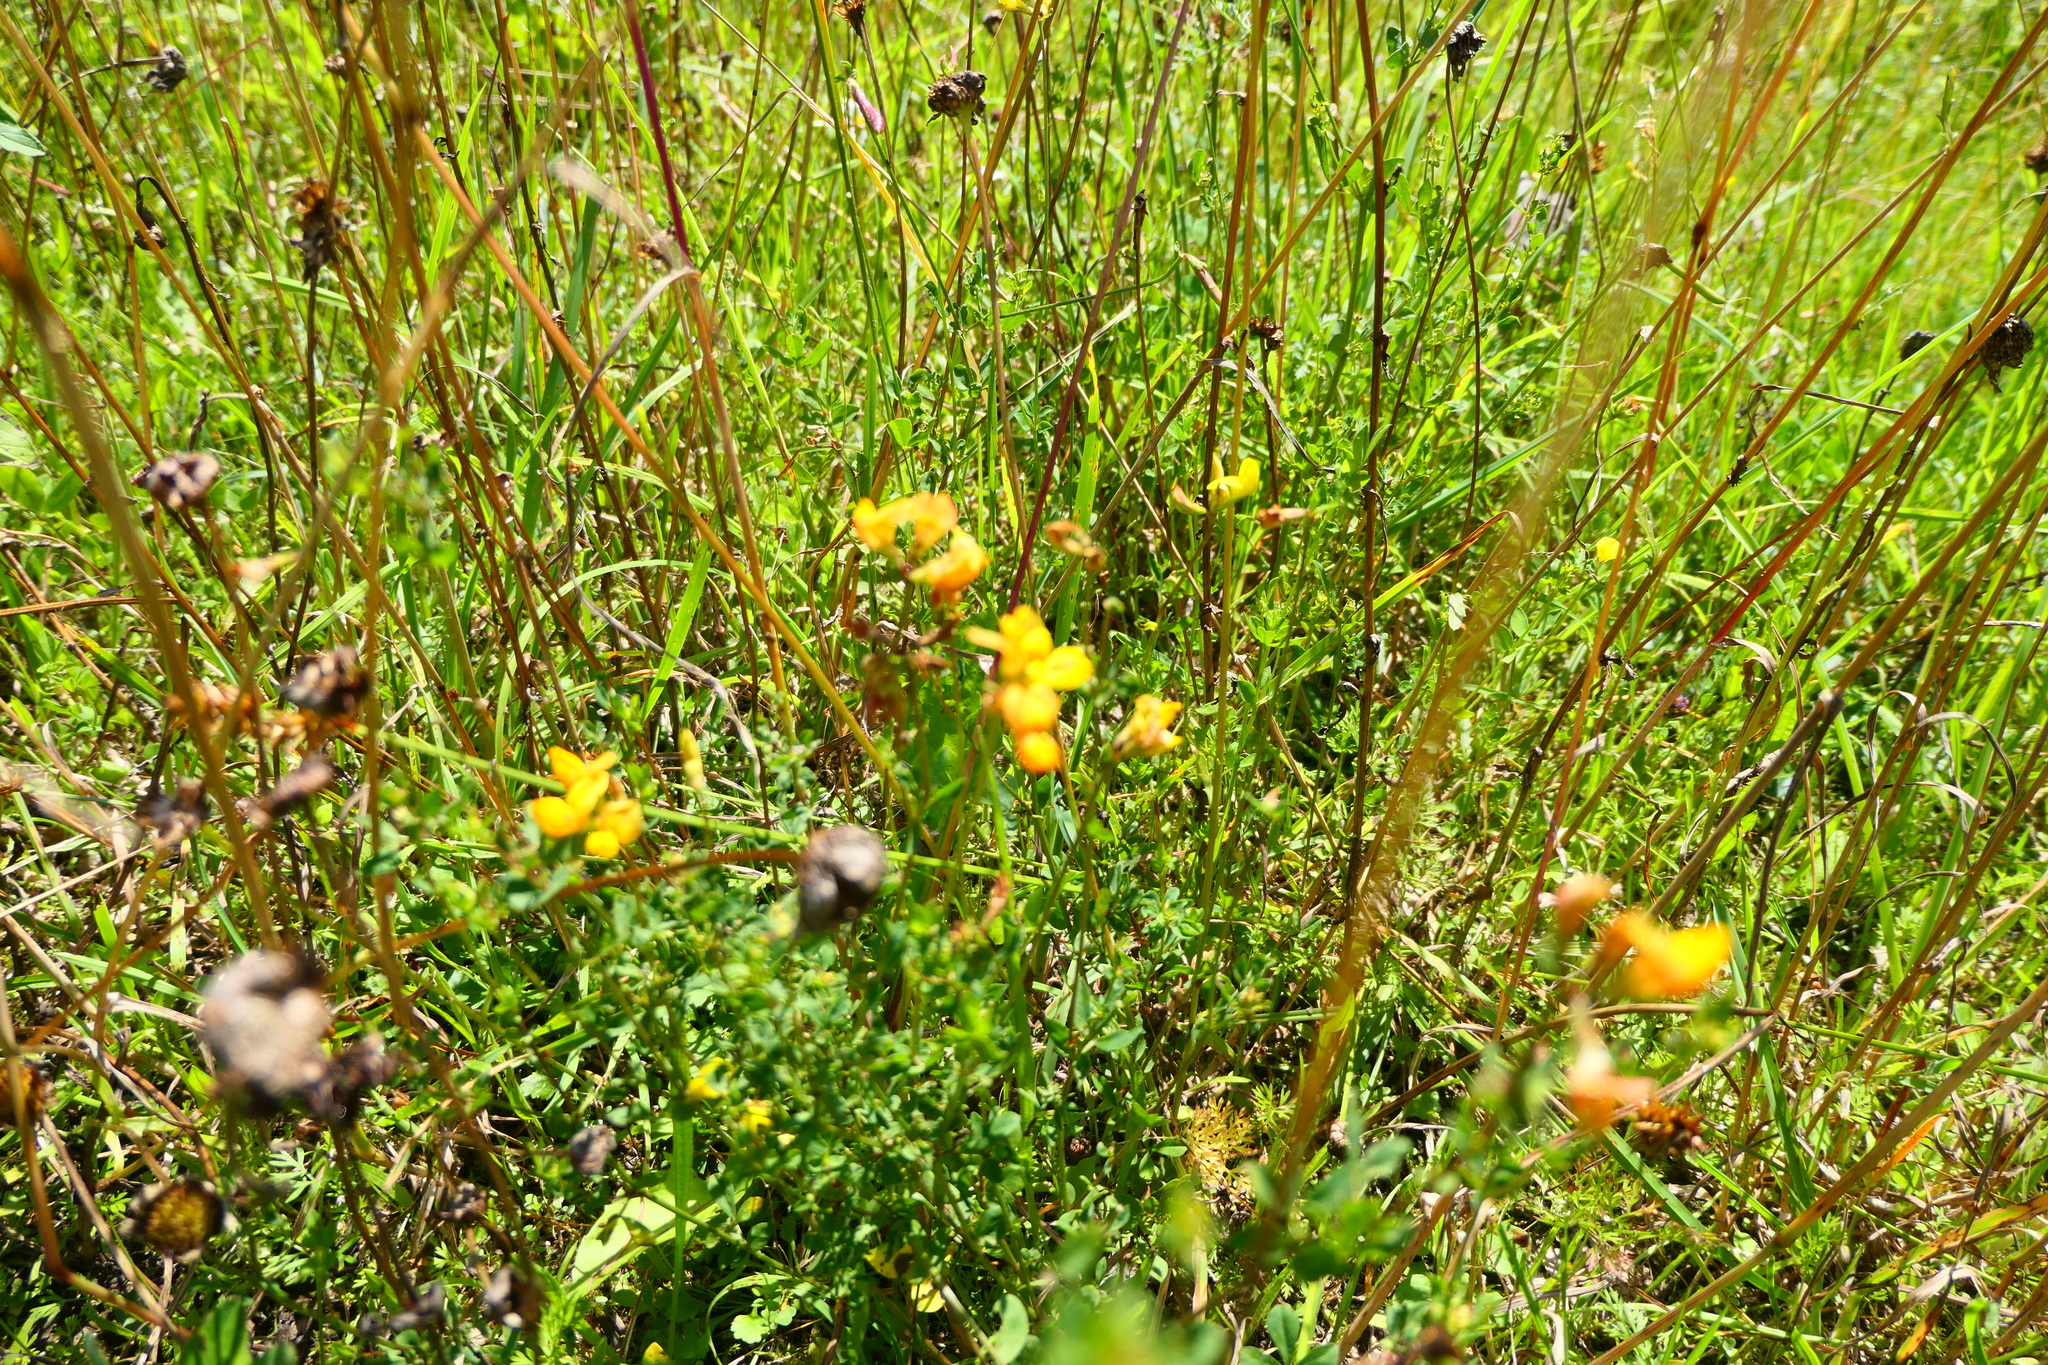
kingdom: Plantae
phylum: Tracheophyta
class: Magnoliopsida
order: Fabales
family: Fabaceae
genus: Lotus
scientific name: Lotus corniculatus
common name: Common bird's-foot-trefoil
